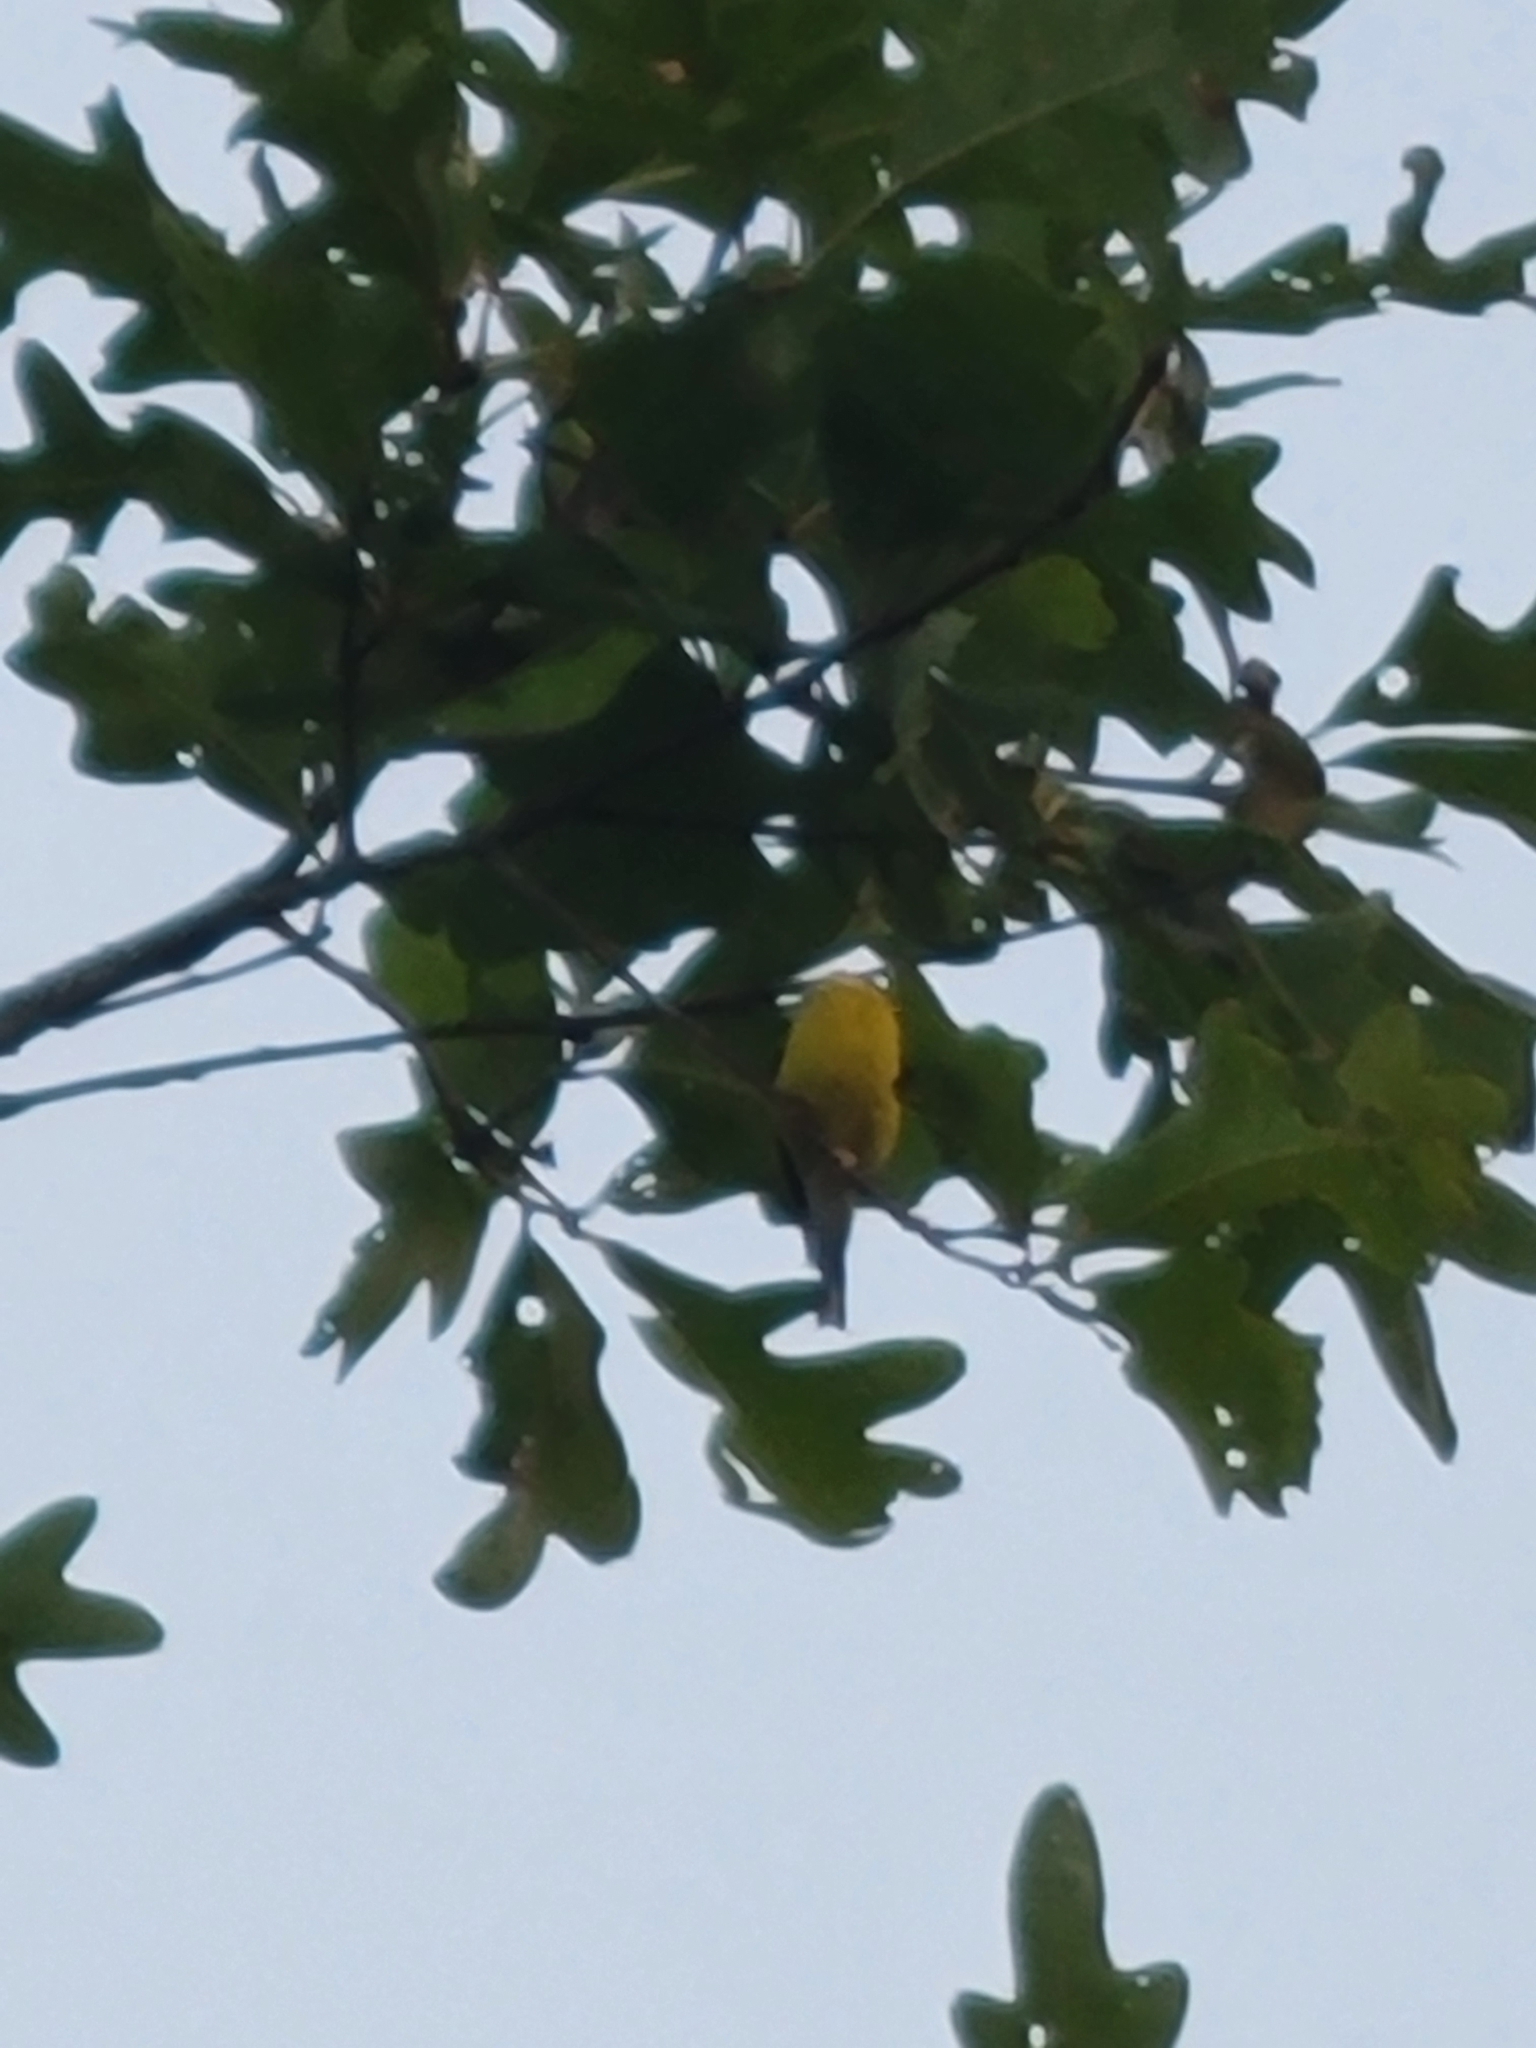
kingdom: Animalia
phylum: Chordata
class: Aves
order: Passeriformes
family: Fringillidae
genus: Spinus
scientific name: Spinus tristis
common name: American goldfinch
